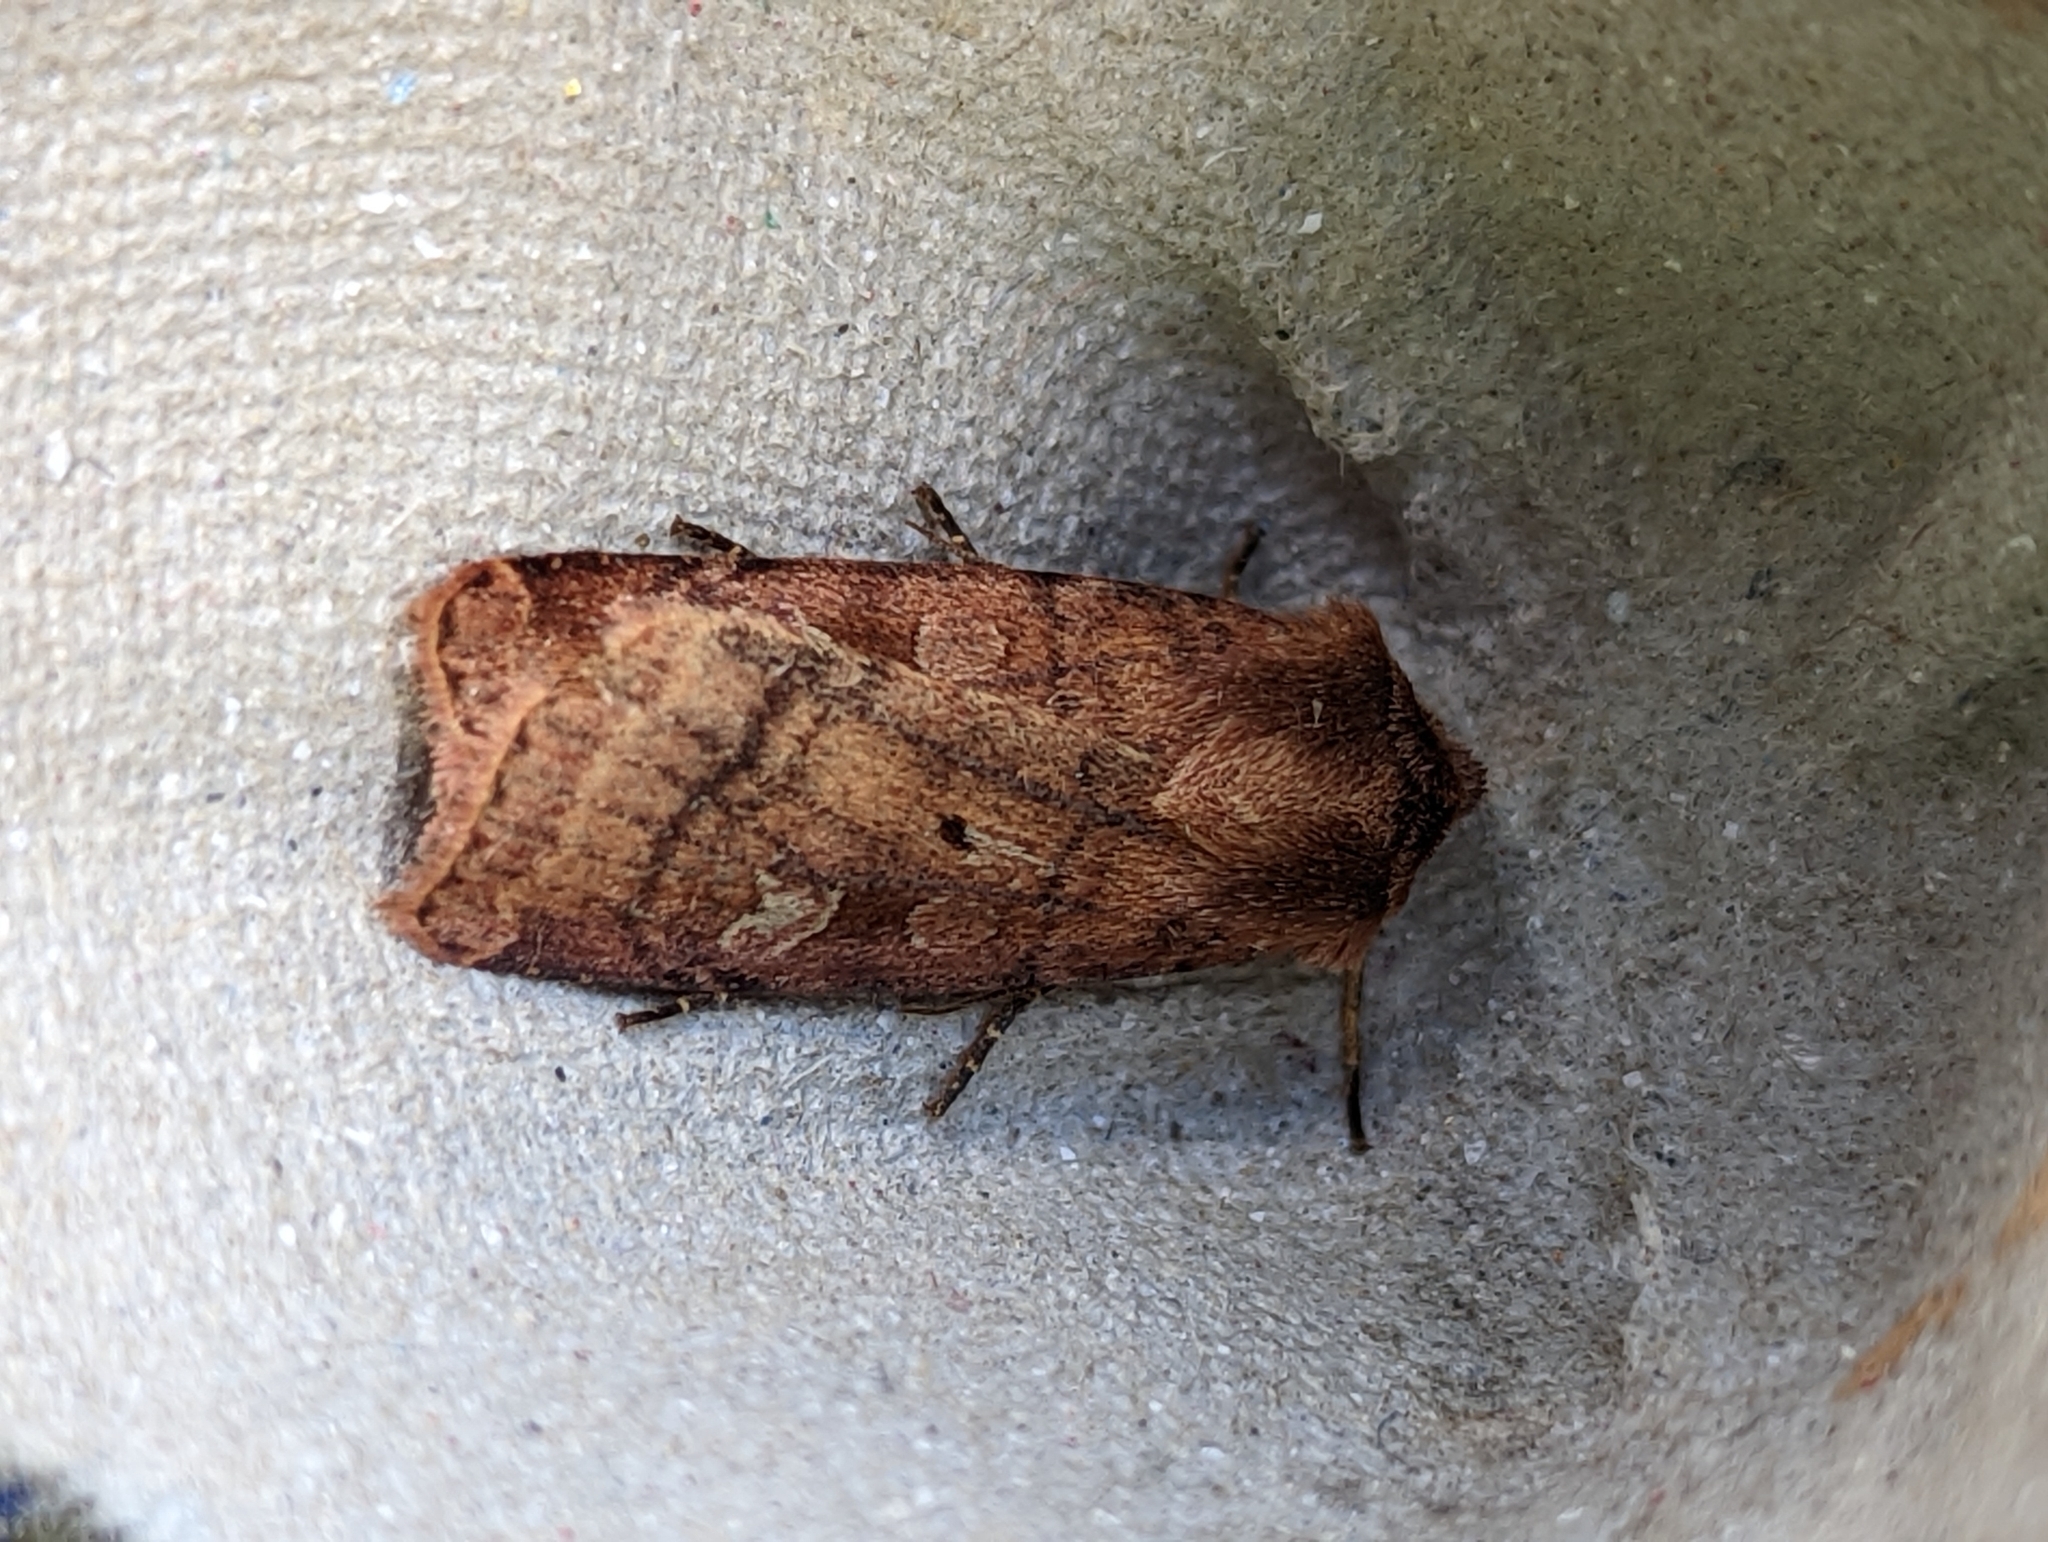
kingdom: Animalia
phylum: Arthropoda
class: Insecta
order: Lepidoptera
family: Noctuidae
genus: Diarsia
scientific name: Diarsia rubi
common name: Small square-spot
